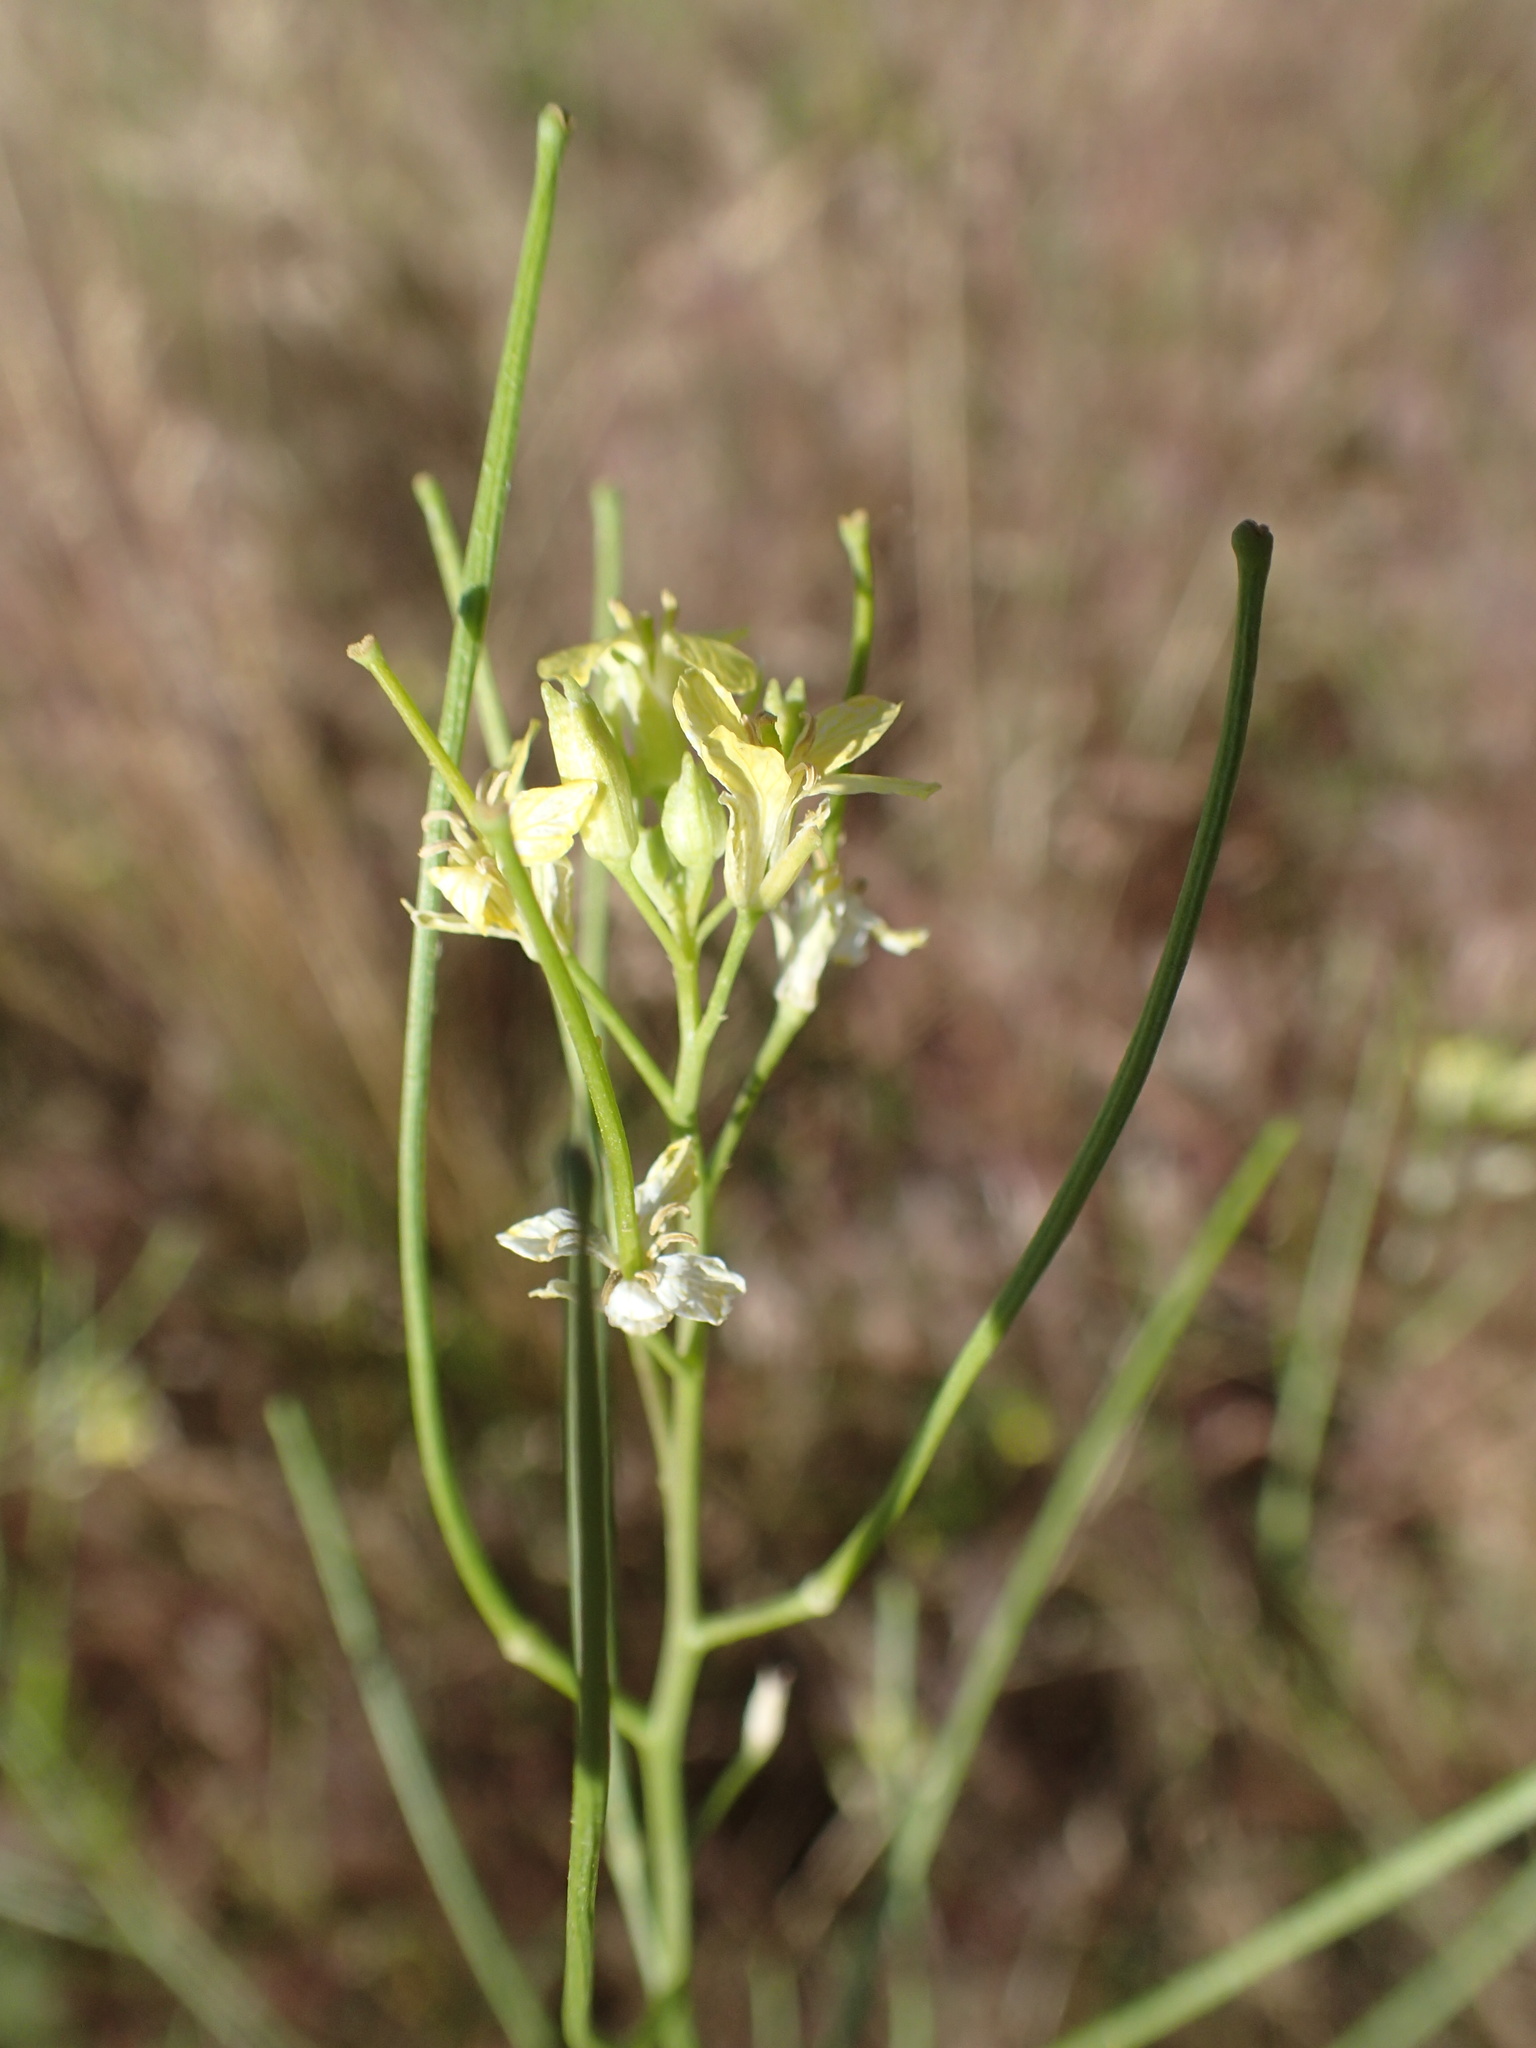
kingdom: Plantae
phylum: Tracheophyta
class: Magnoliopsida
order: Brassicales
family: Brassicaceae
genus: Sisymbrium
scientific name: Sisymbrium altissimum
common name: Tall rocket
